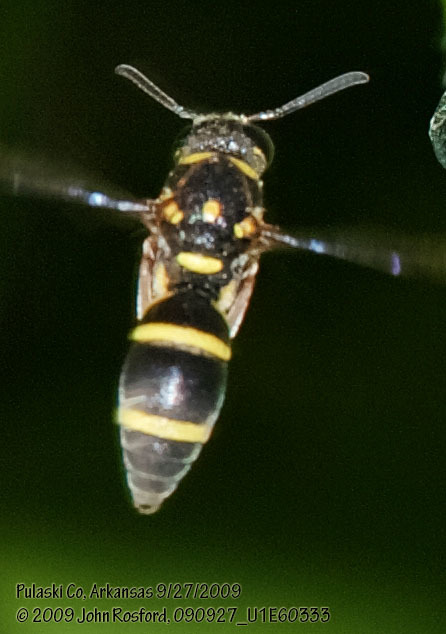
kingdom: Animalia
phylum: Arthropoda
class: Insecta
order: Hymenoptera
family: Eumenidae
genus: Parancistrocerus
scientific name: Parancistrocerus fulvipes
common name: Potter wasp
